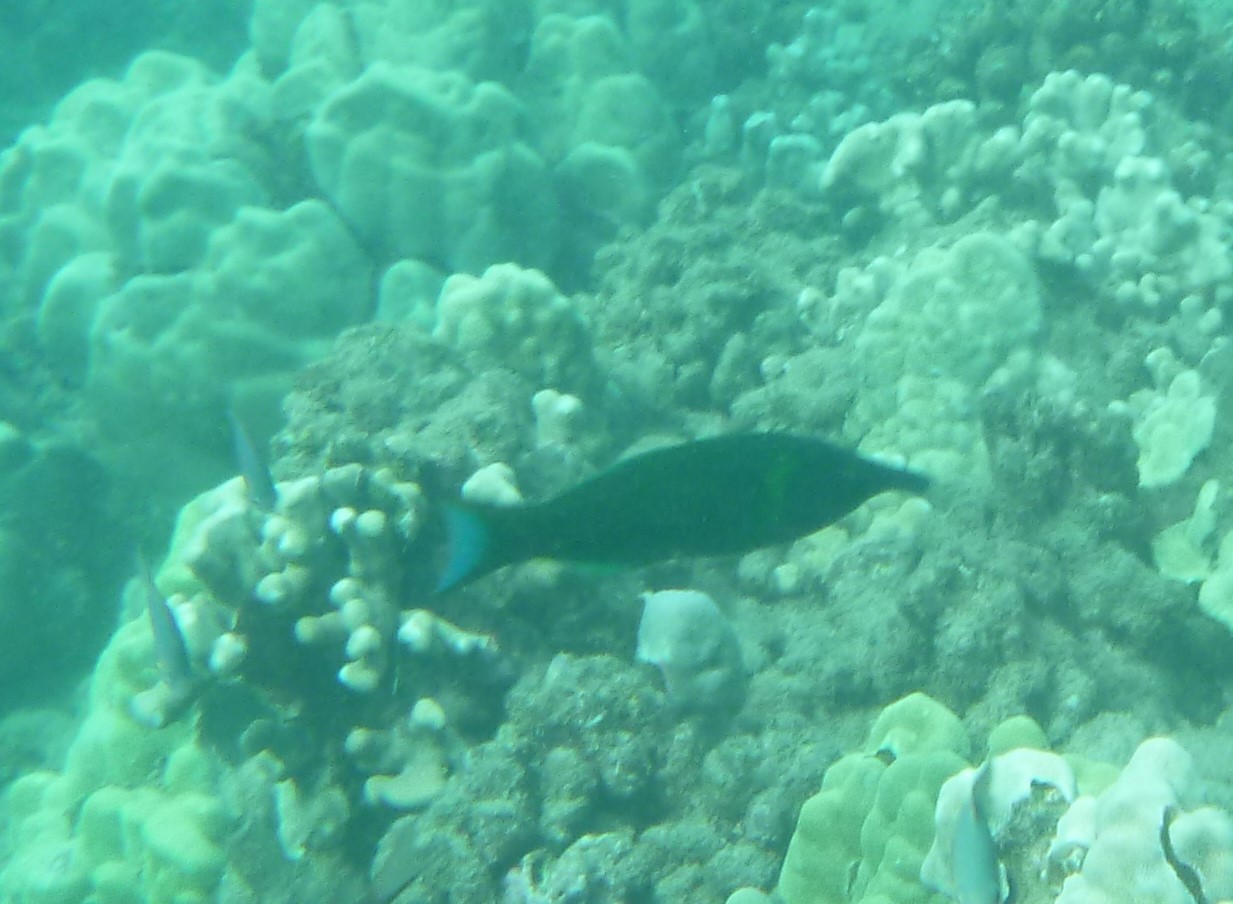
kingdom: Animalia
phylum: Chordata
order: Perciformes
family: Labridae
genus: Gomphosus
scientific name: Gomphosus varius
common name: Bird wrasse
